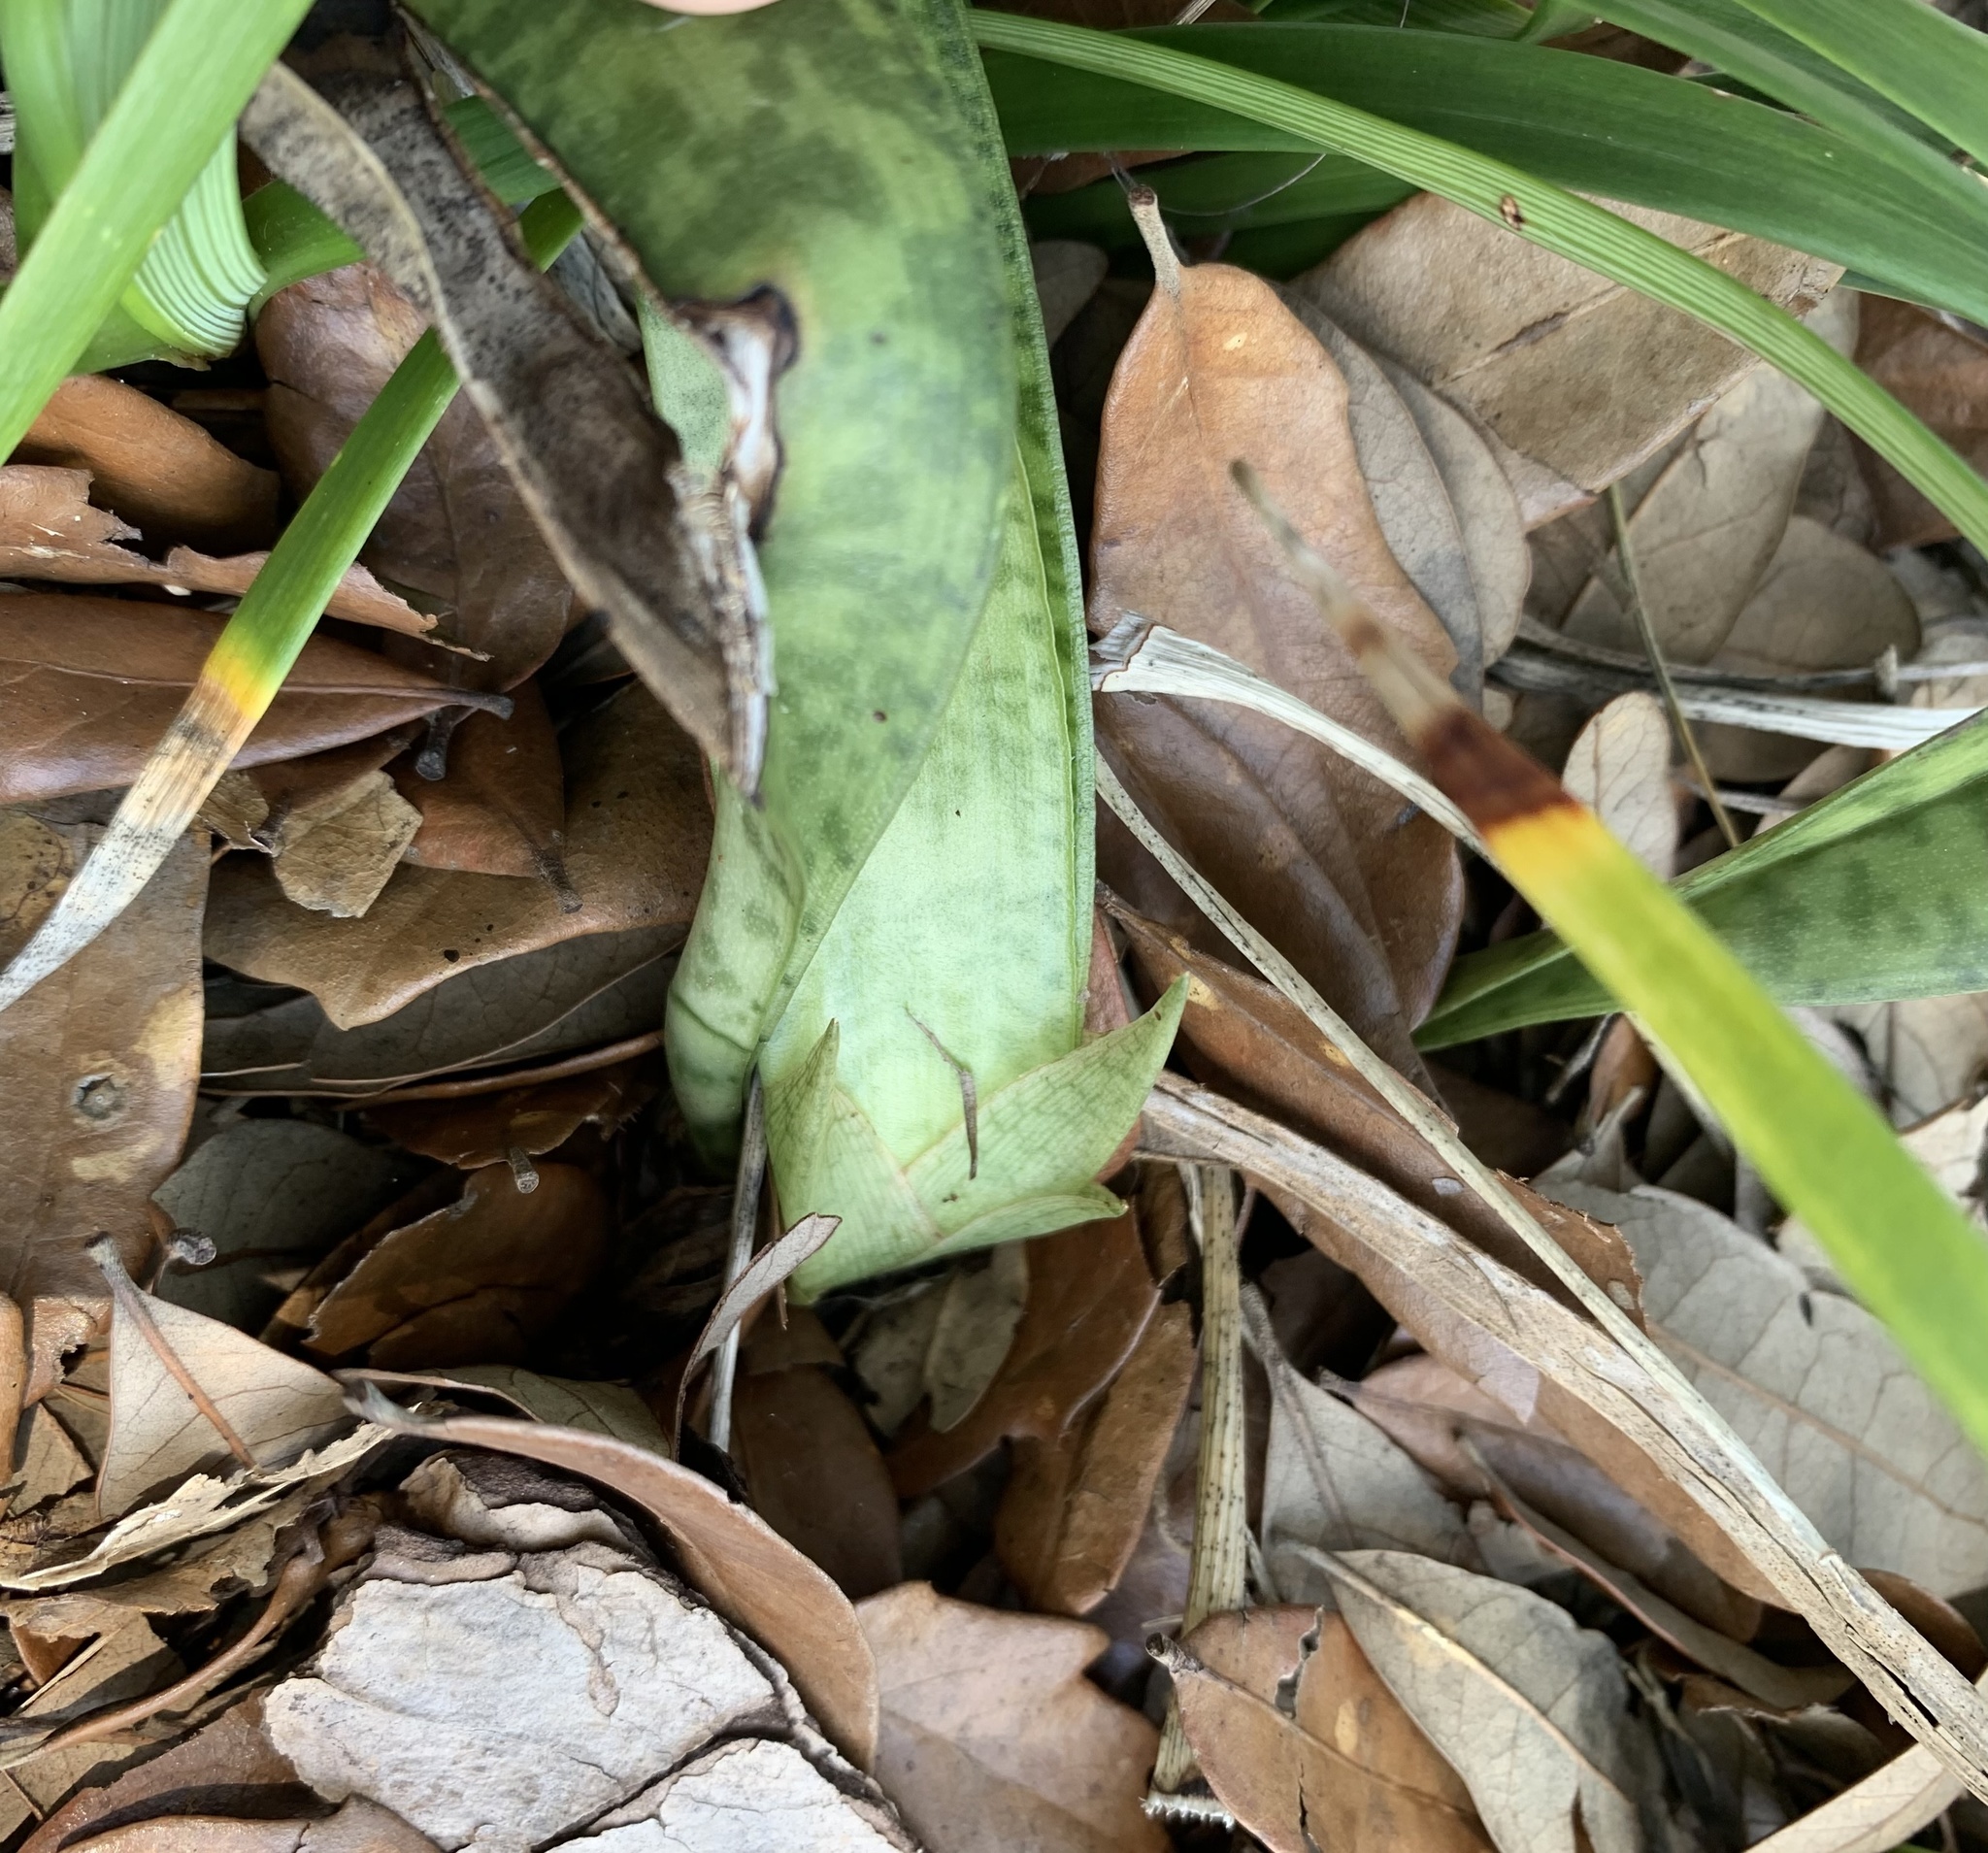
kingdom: Plantae
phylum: Tracheophyta
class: Liliopsida
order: Asparagales
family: Orchidaceae
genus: Eulophia
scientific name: Eulophia maculata
